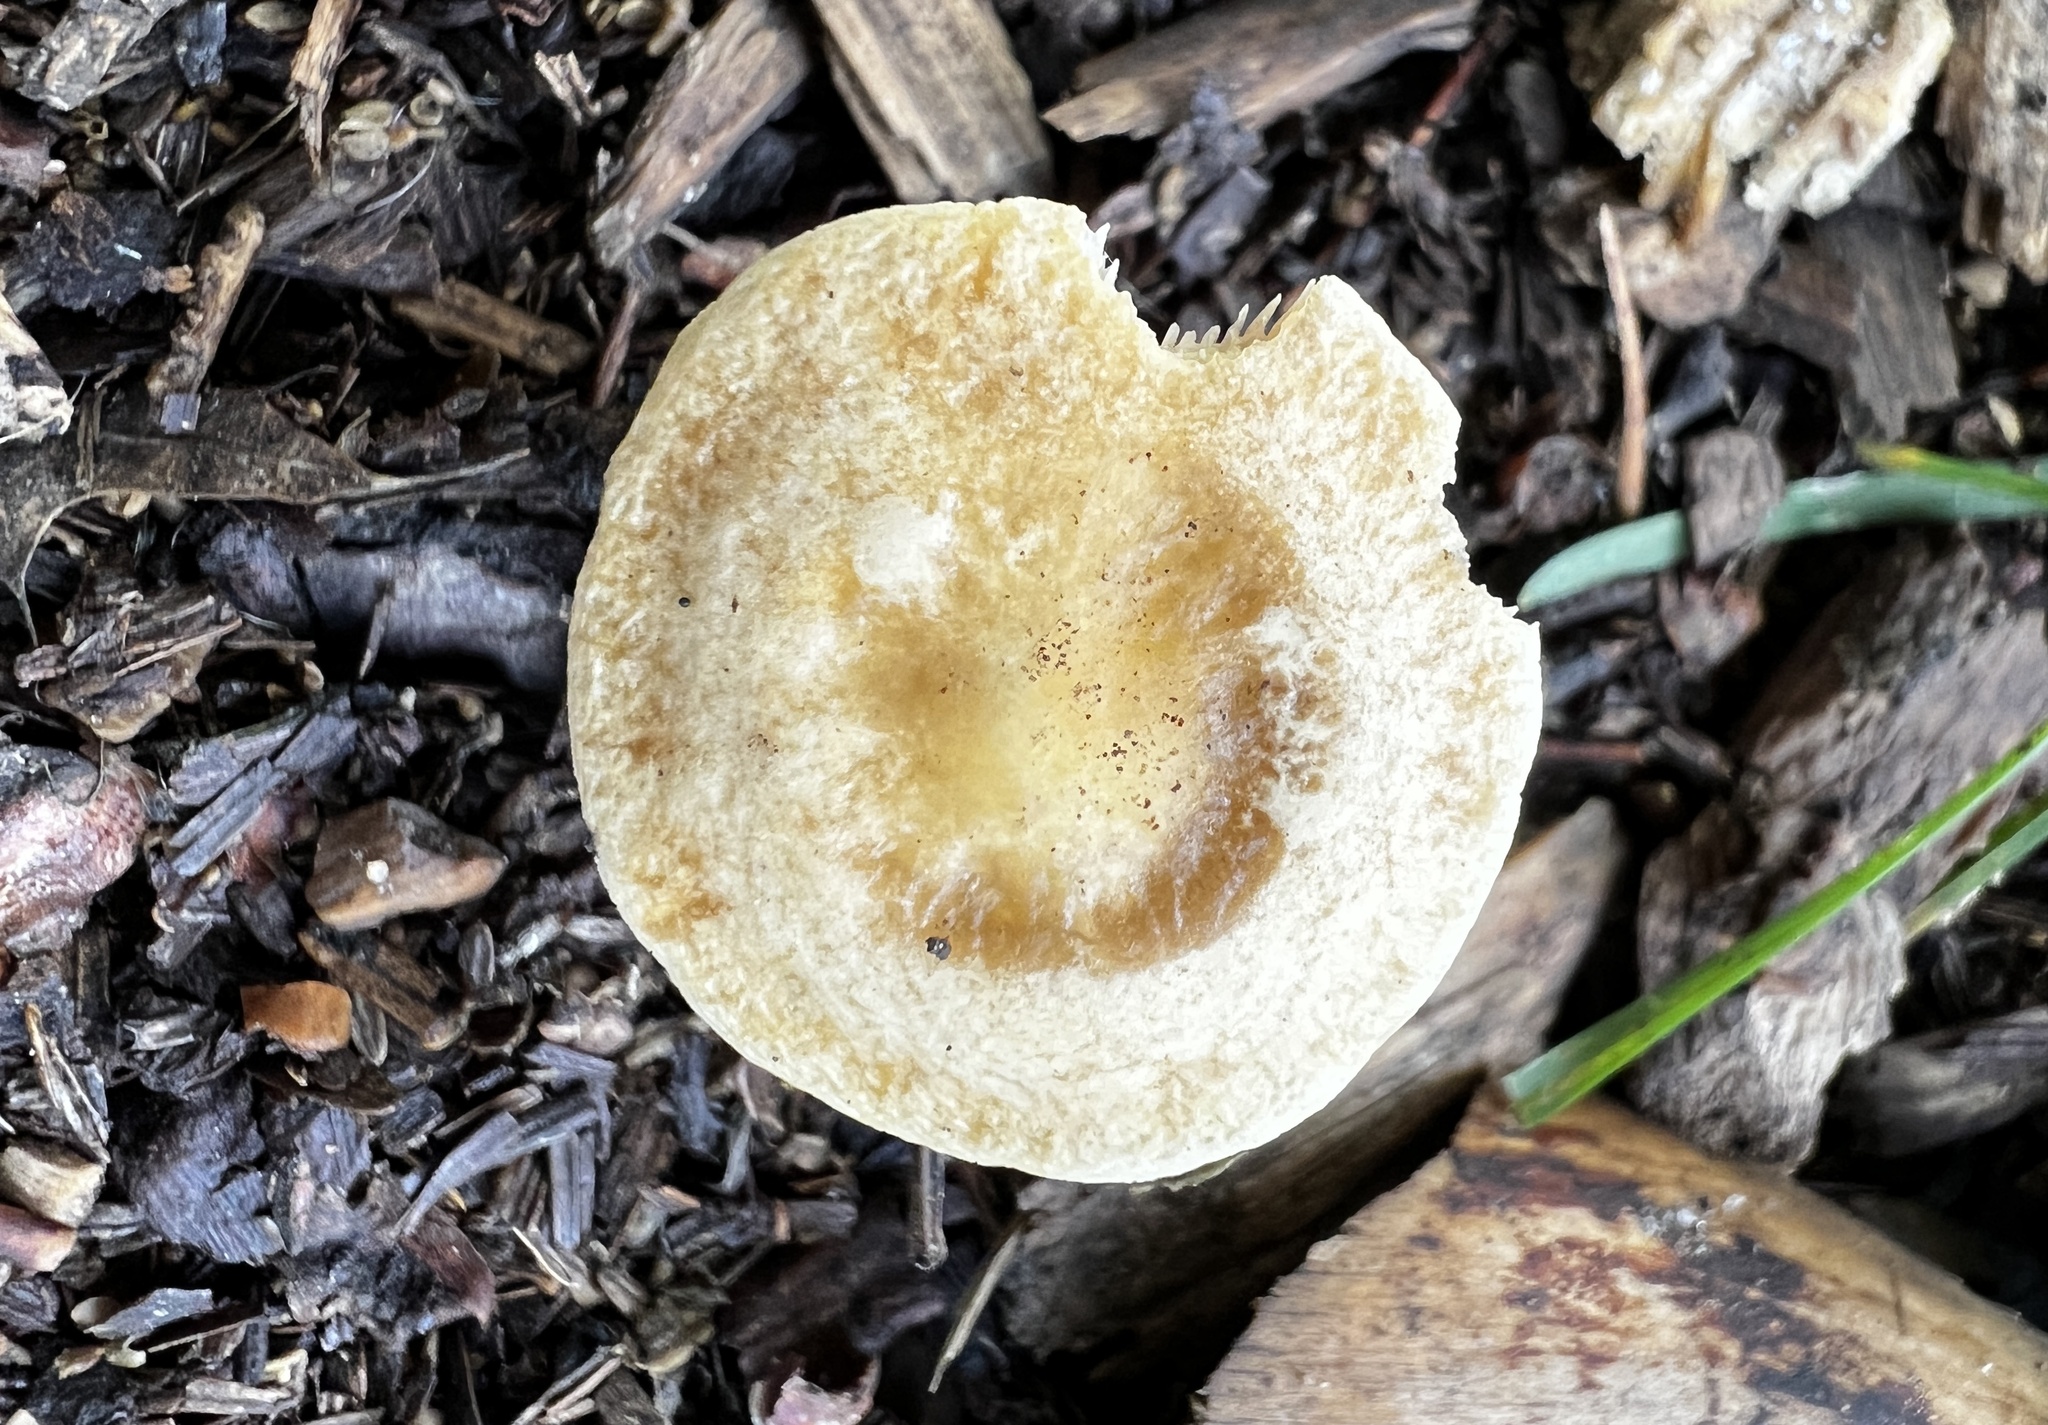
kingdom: Fungi
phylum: Basidiomycota
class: Agaricomycetes
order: Agaricales
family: Strophariaceae
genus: Agrocybe
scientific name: Agrocybe humosa
